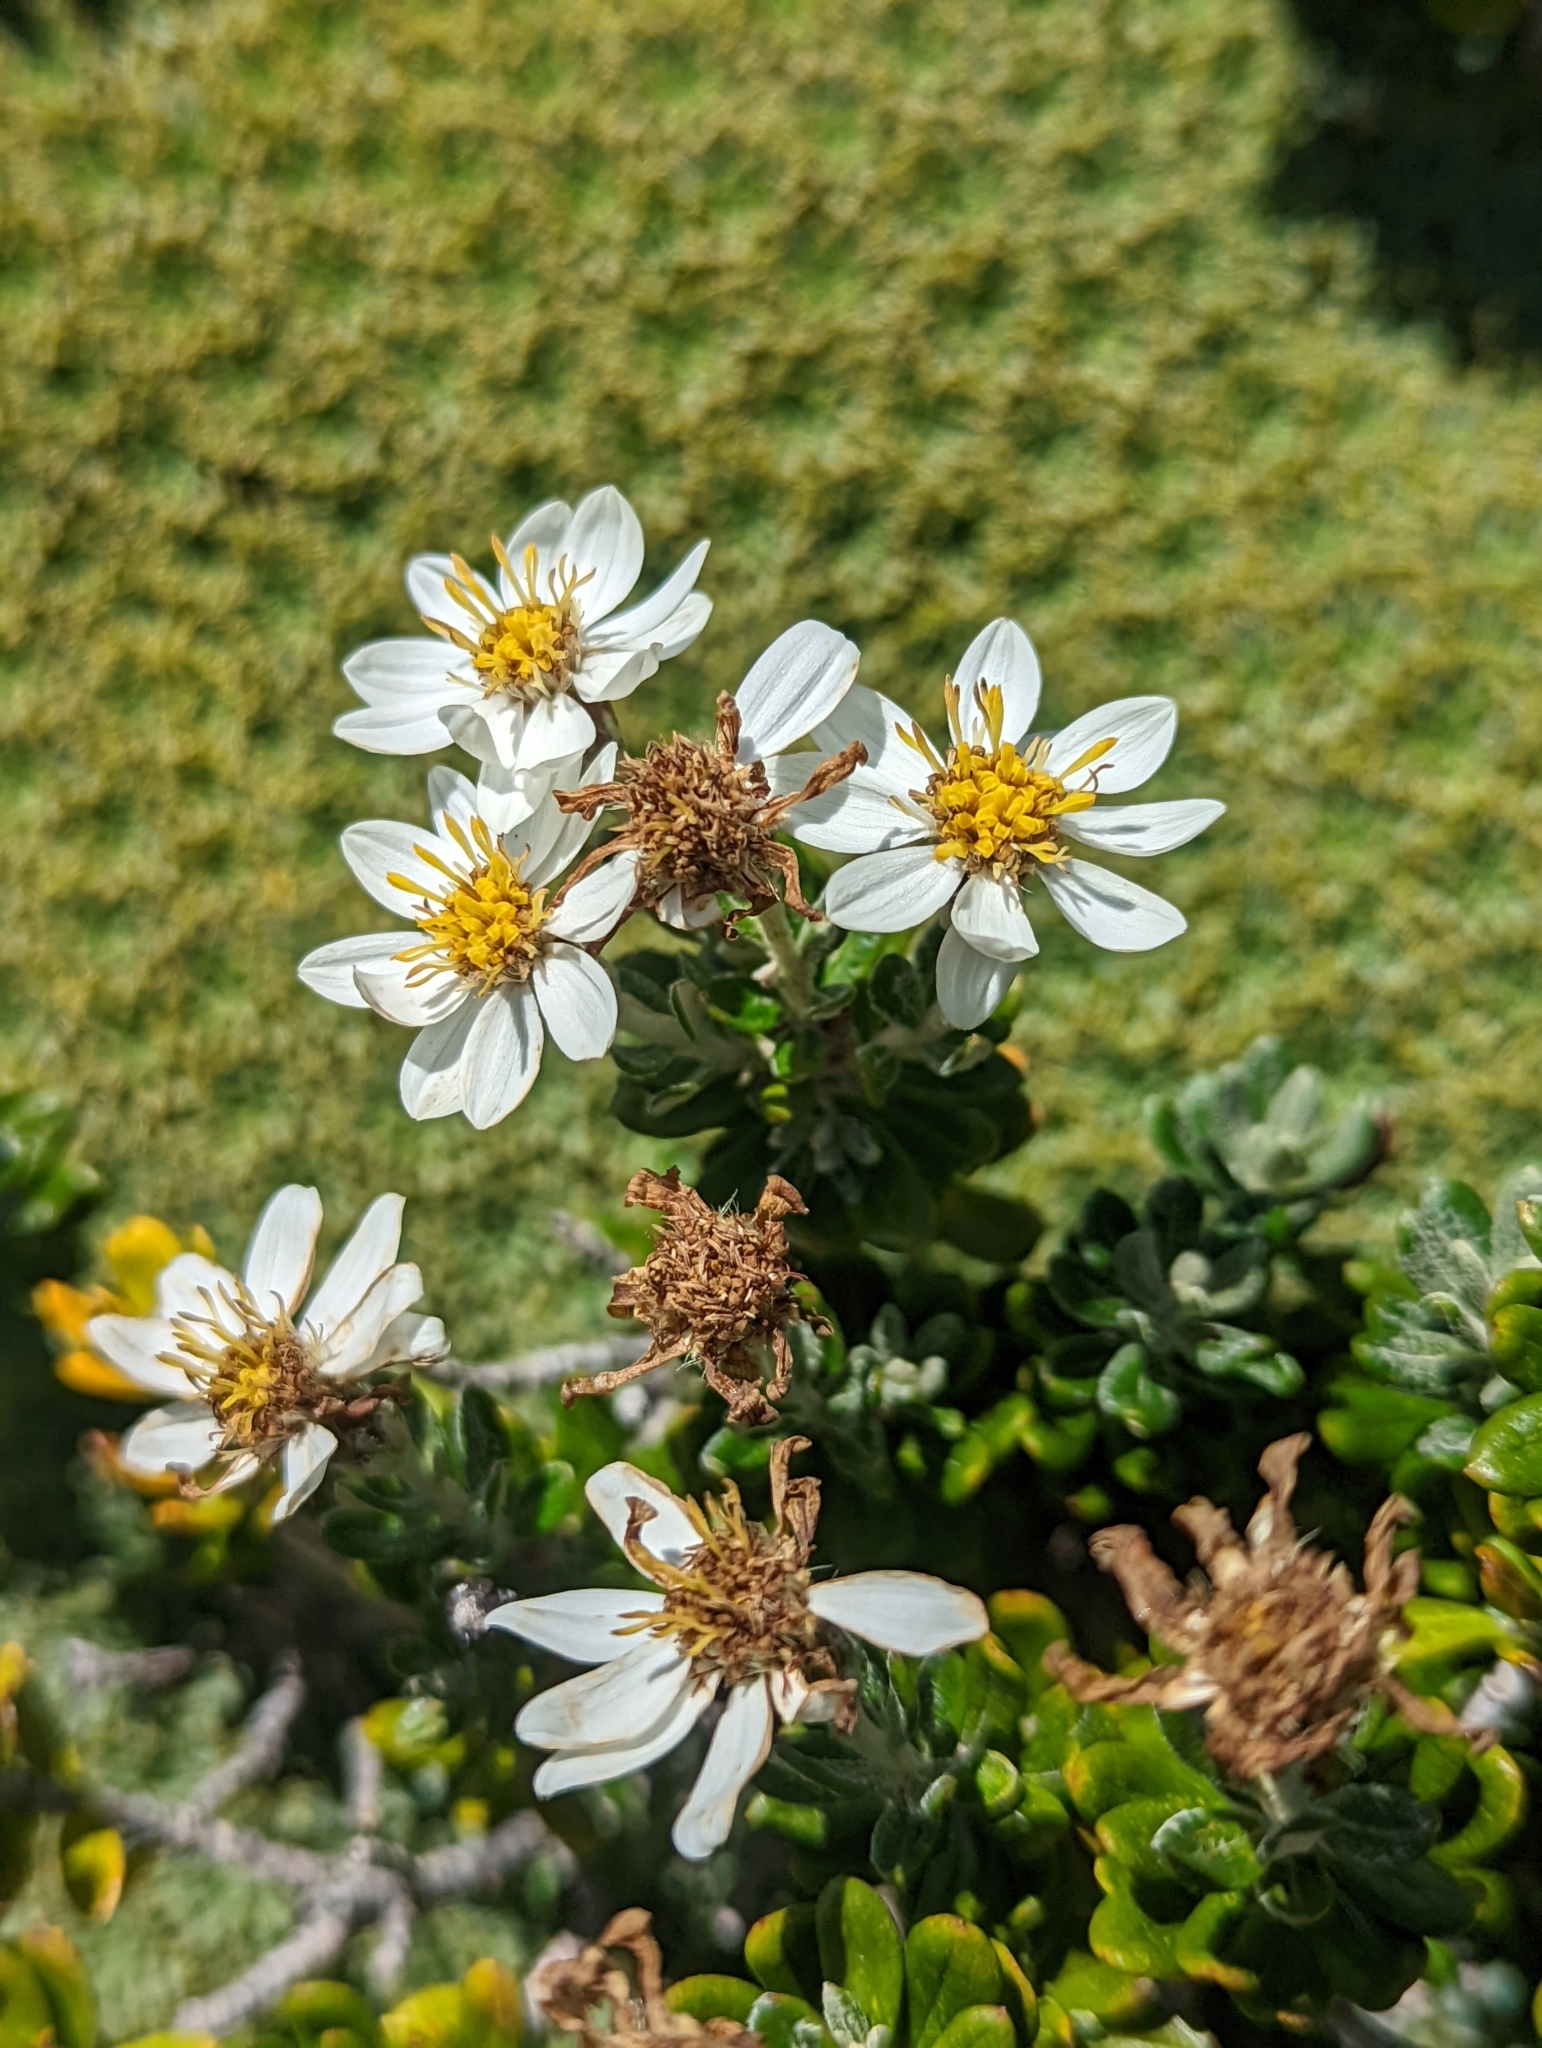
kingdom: Plantae
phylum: Tracheophyta
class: Magnoliopsida
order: Asterales
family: Asteraceae
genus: Chiliotrichum
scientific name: Chiliotrichum diffusum
